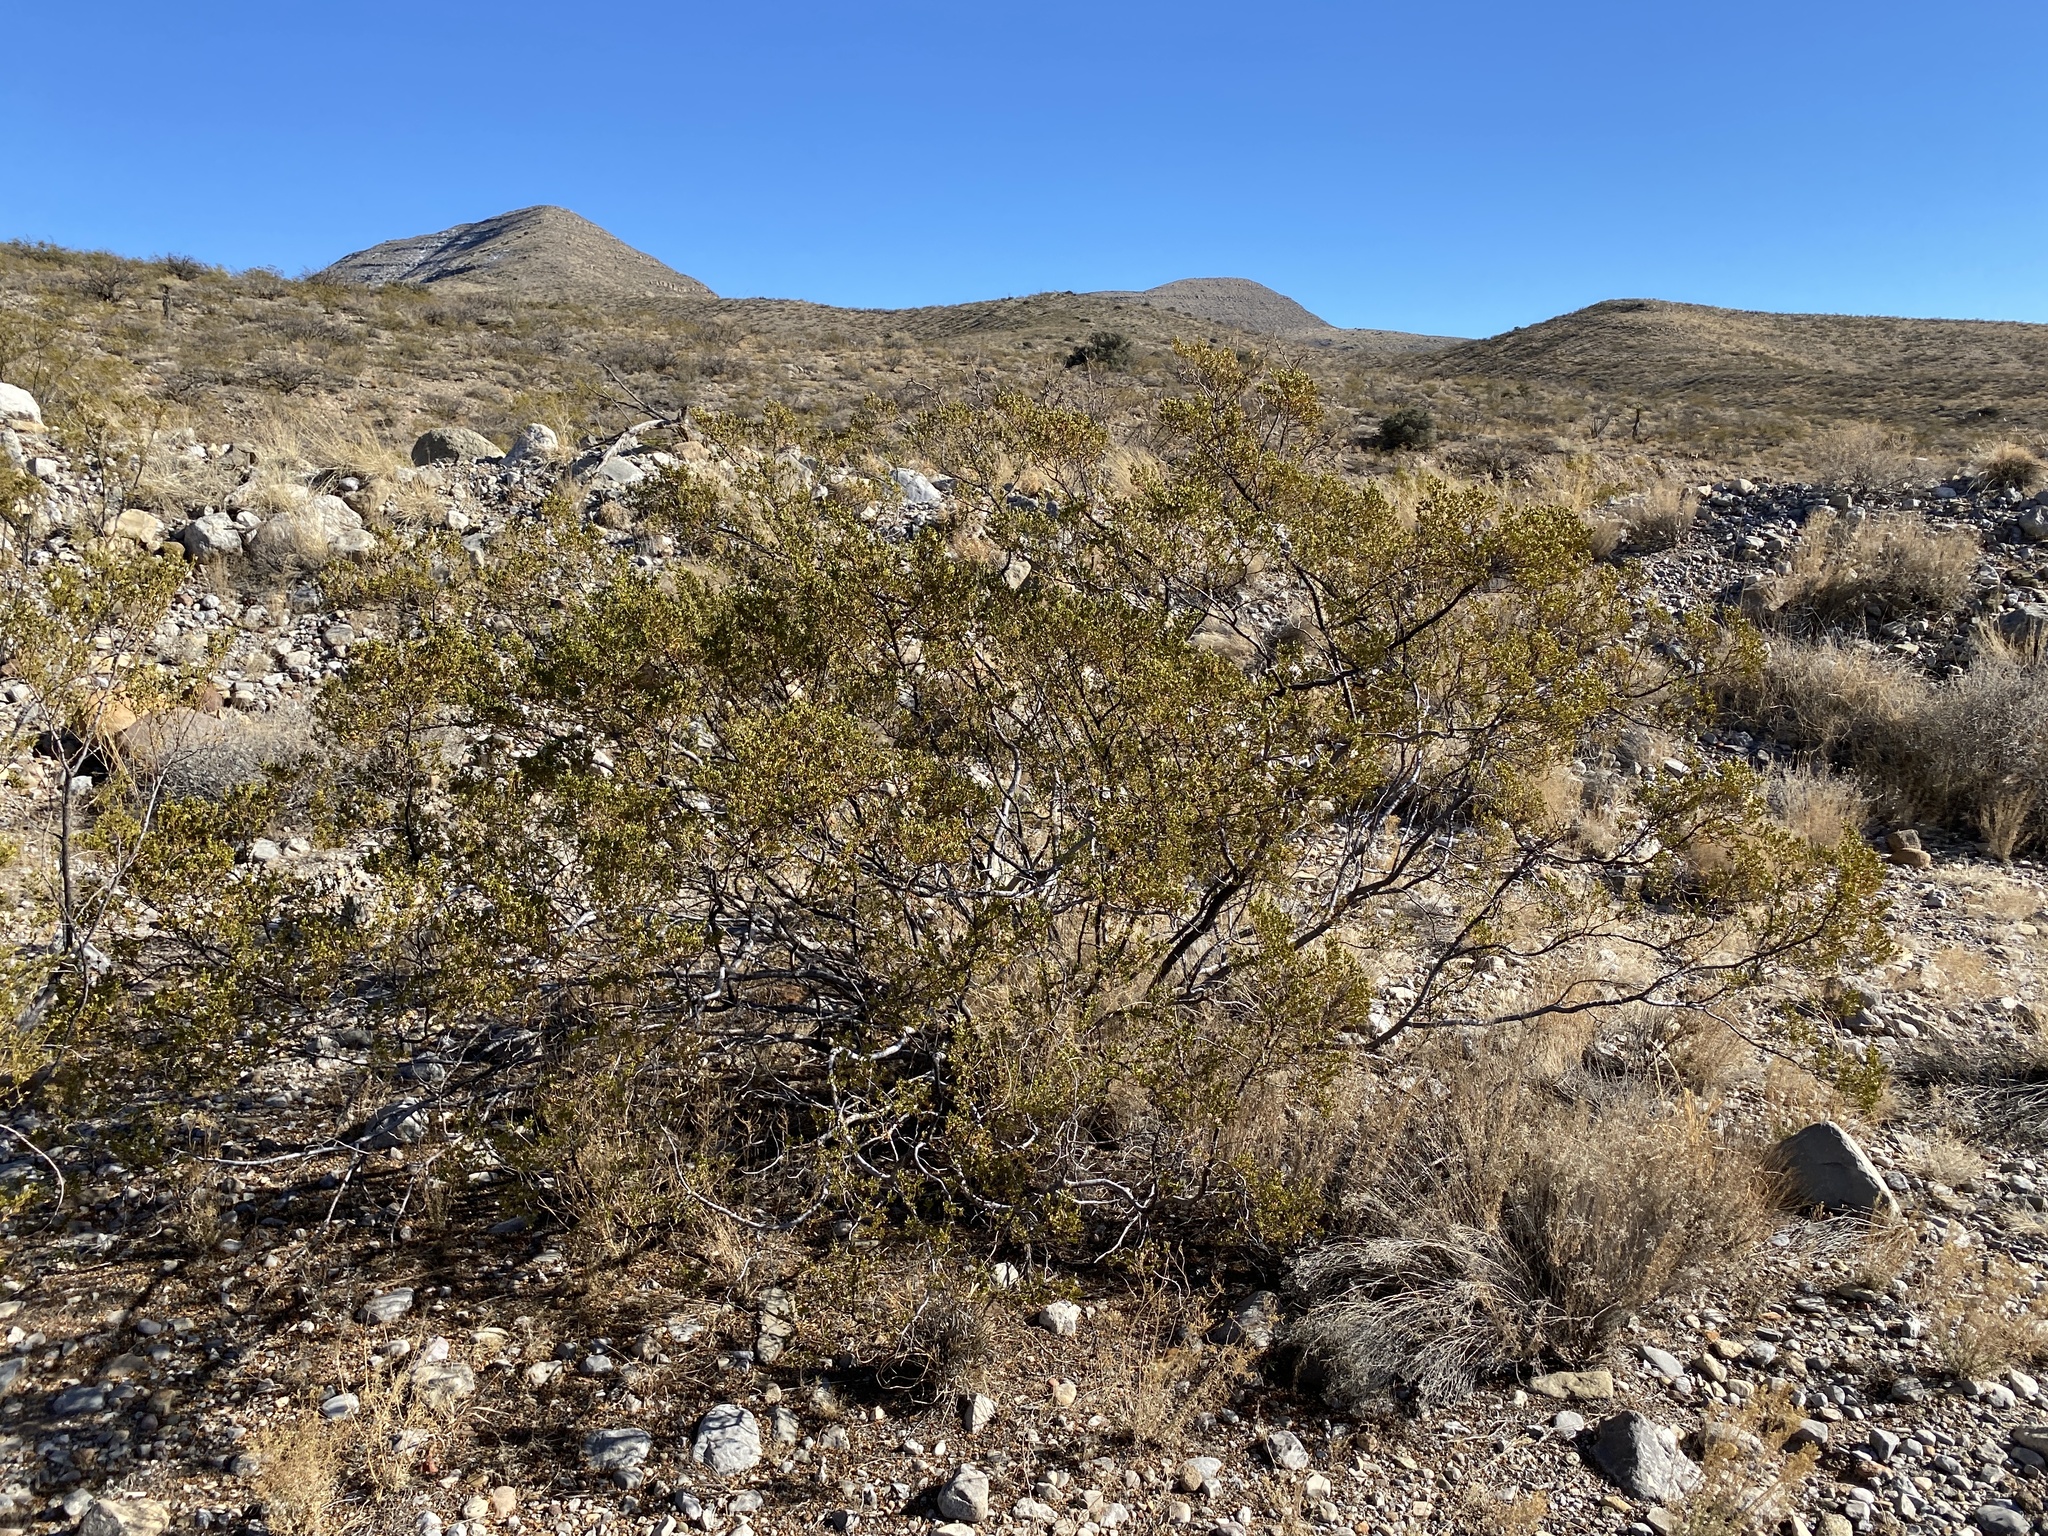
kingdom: Plantae
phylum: Tracheophyta
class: Magnoliopsida
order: Zygophyllales
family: Zygophyllaceae
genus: Larrea
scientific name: Larrea tridentata
